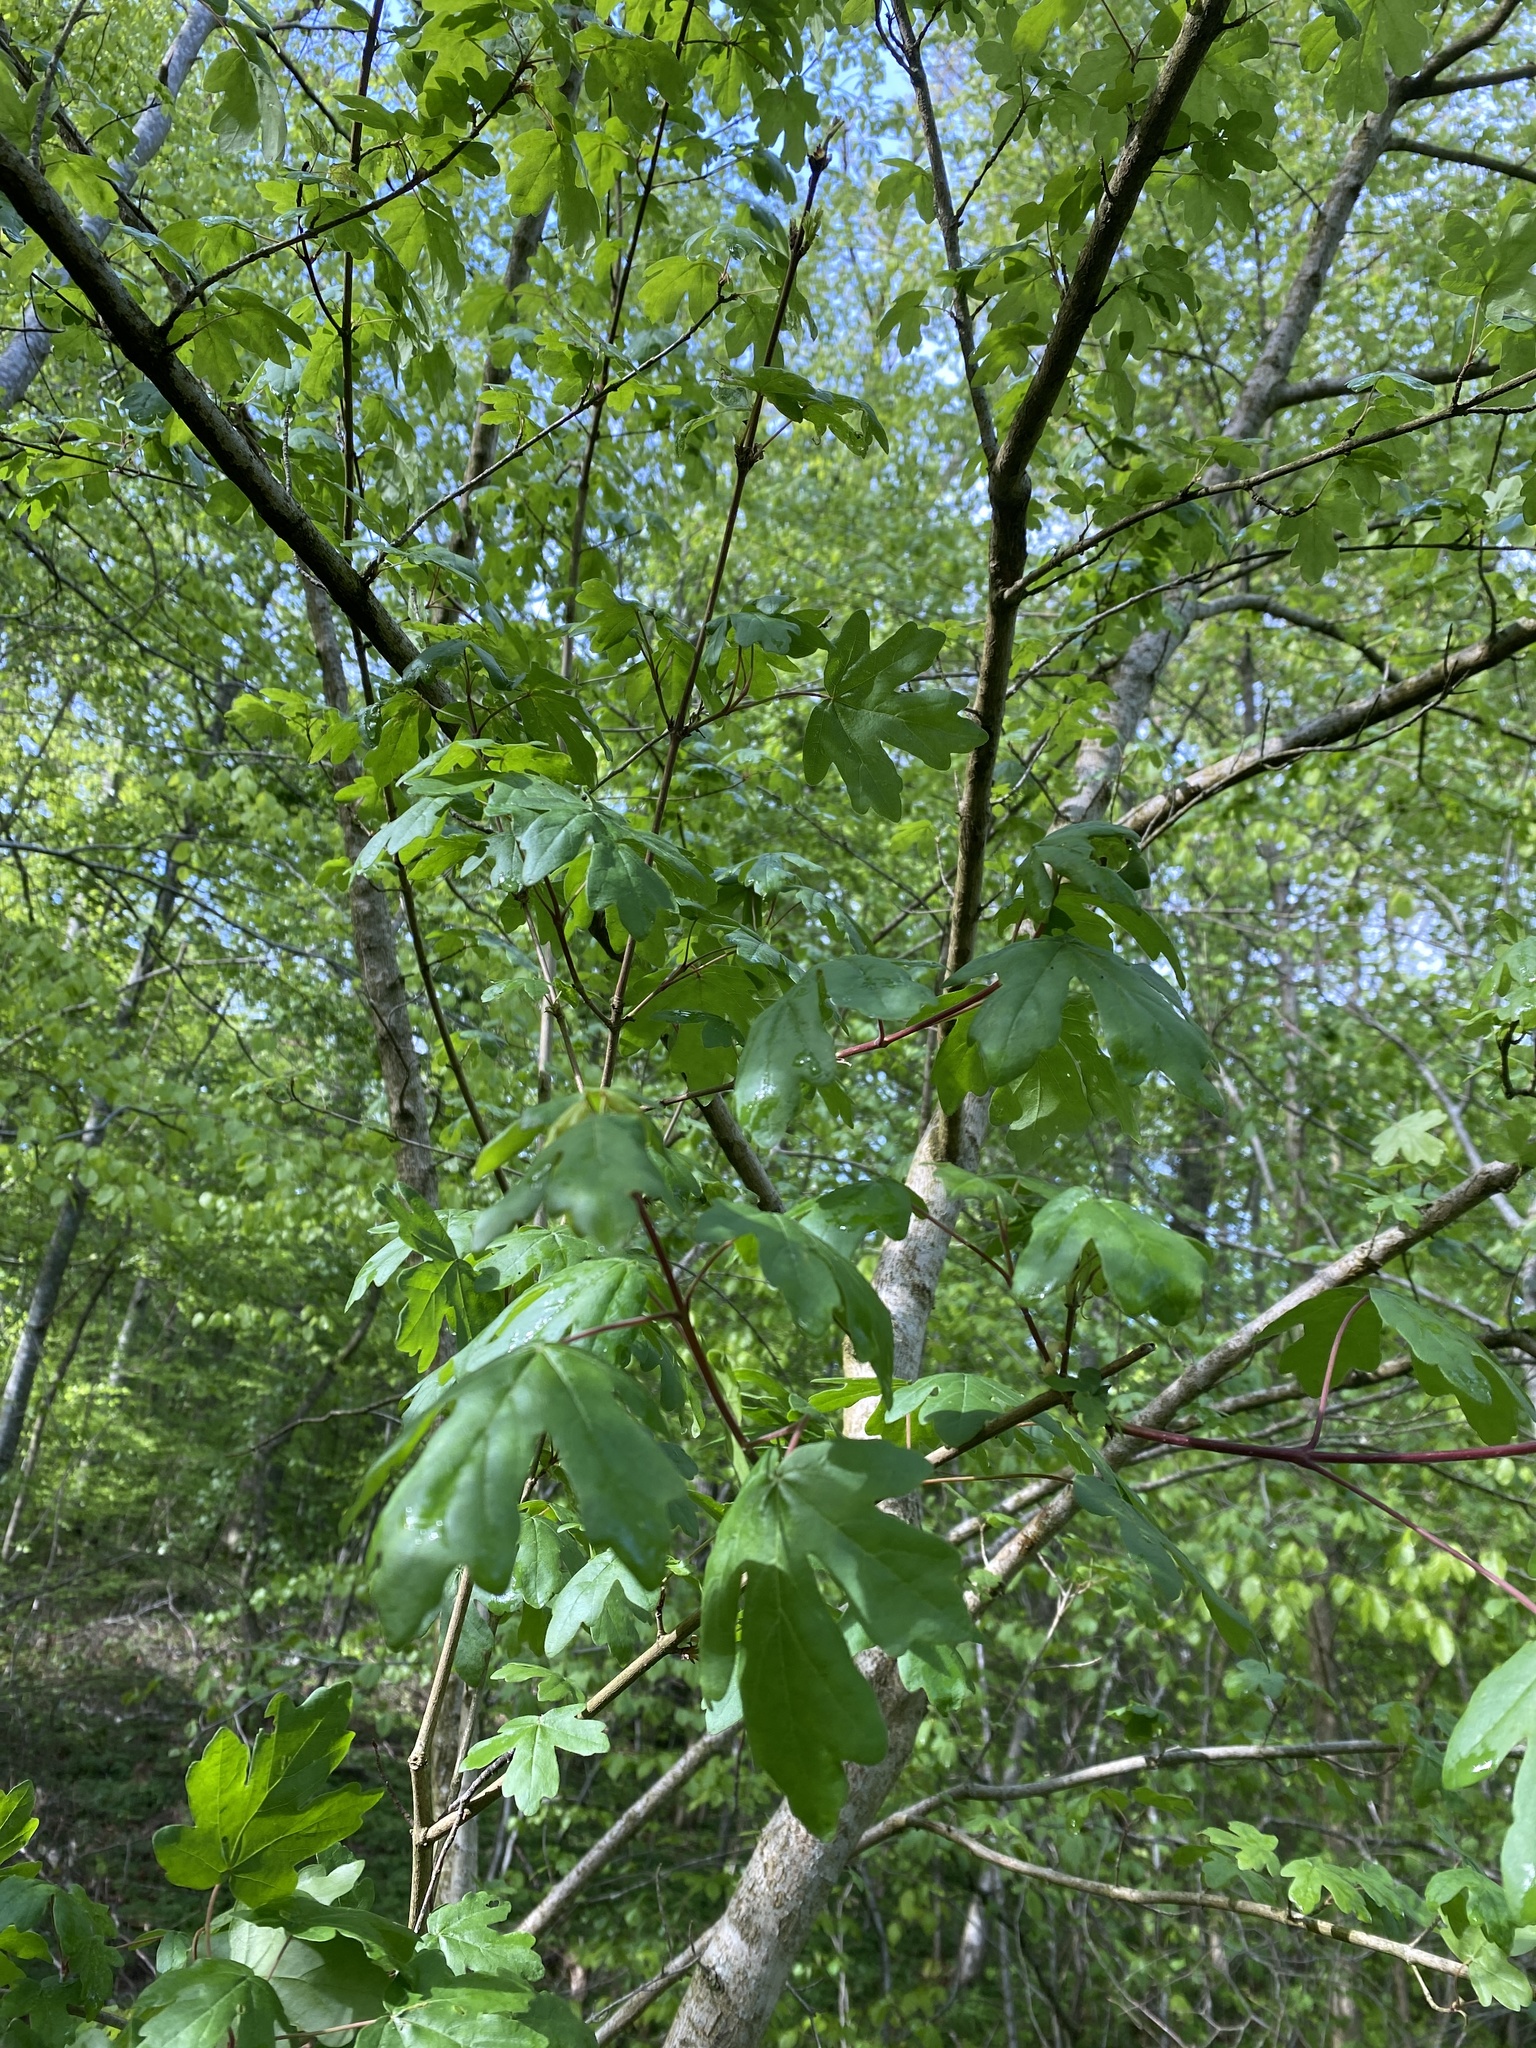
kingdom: Plantae
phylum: Tracheophyta
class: Magnoliopsida
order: Sapindales
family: Sapindaceae
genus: Acer
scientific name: Acer campestre
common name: Field maple
